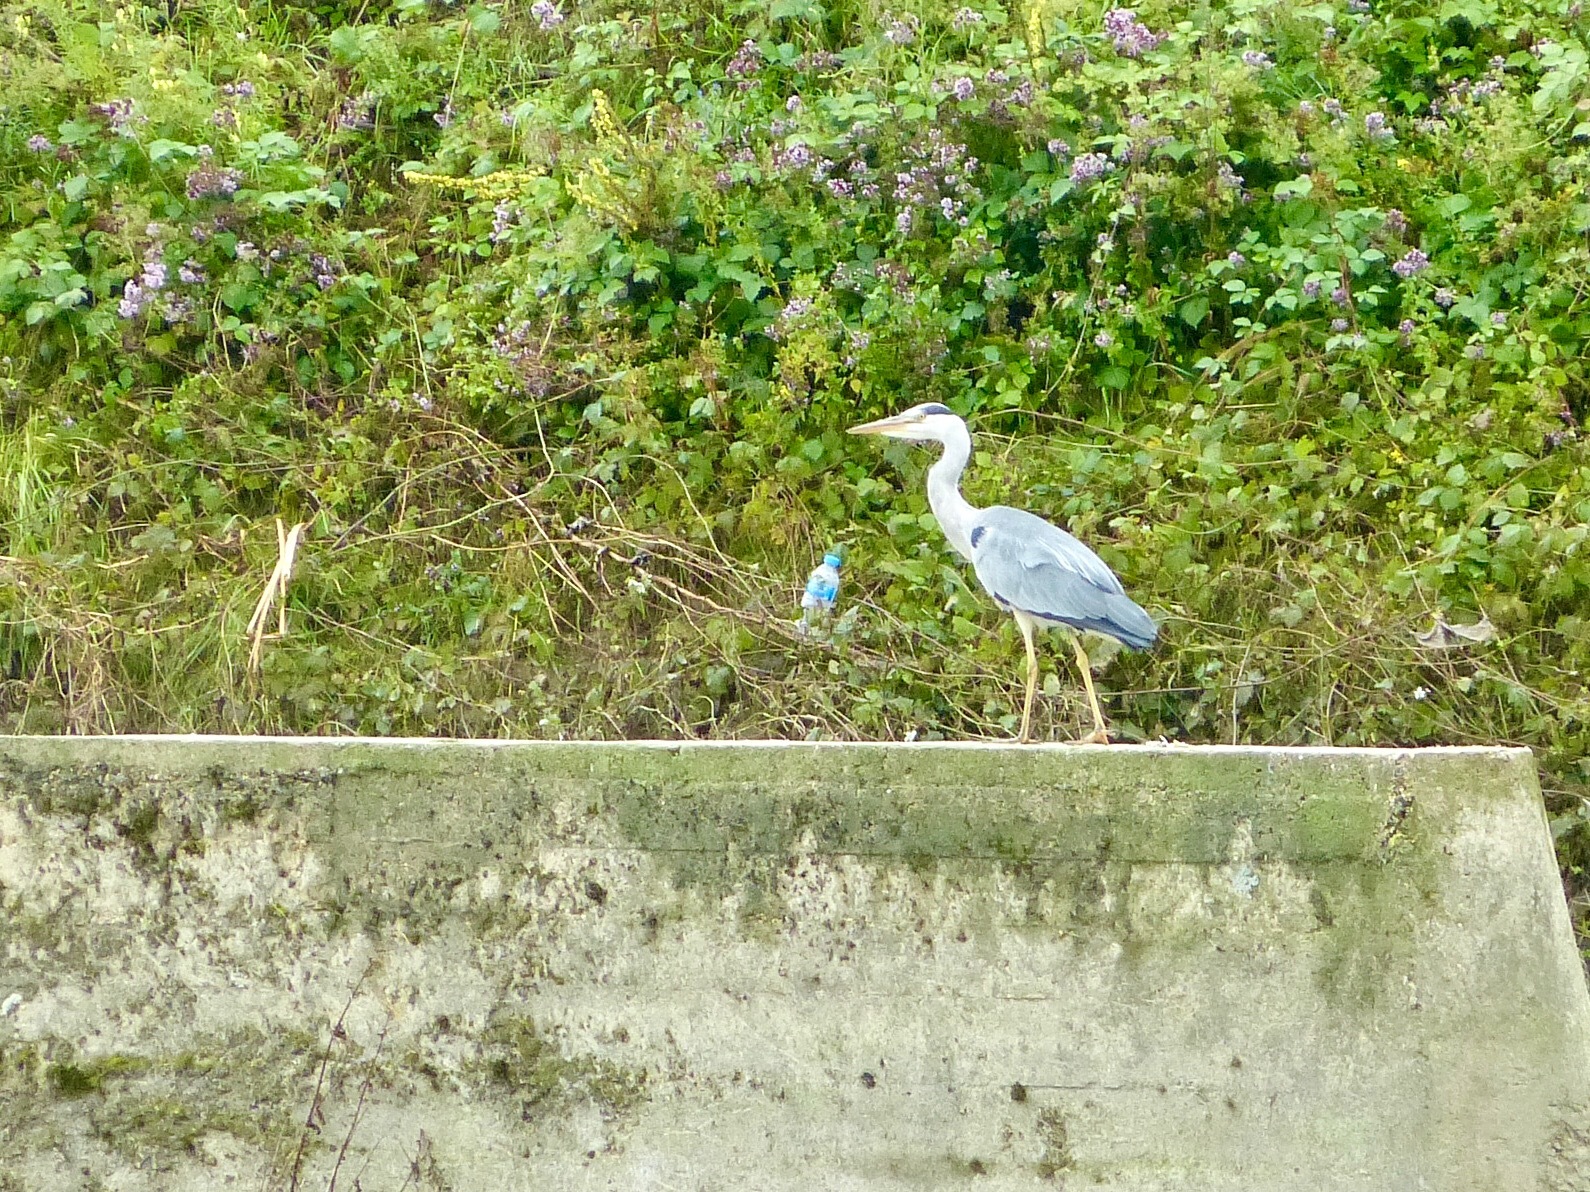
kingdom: Animalia
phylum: Chordata
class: Aves
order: Pelecaniformes
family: Ardeidae
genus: Ardea
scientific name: Ardea cinerea
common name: Grey heron
